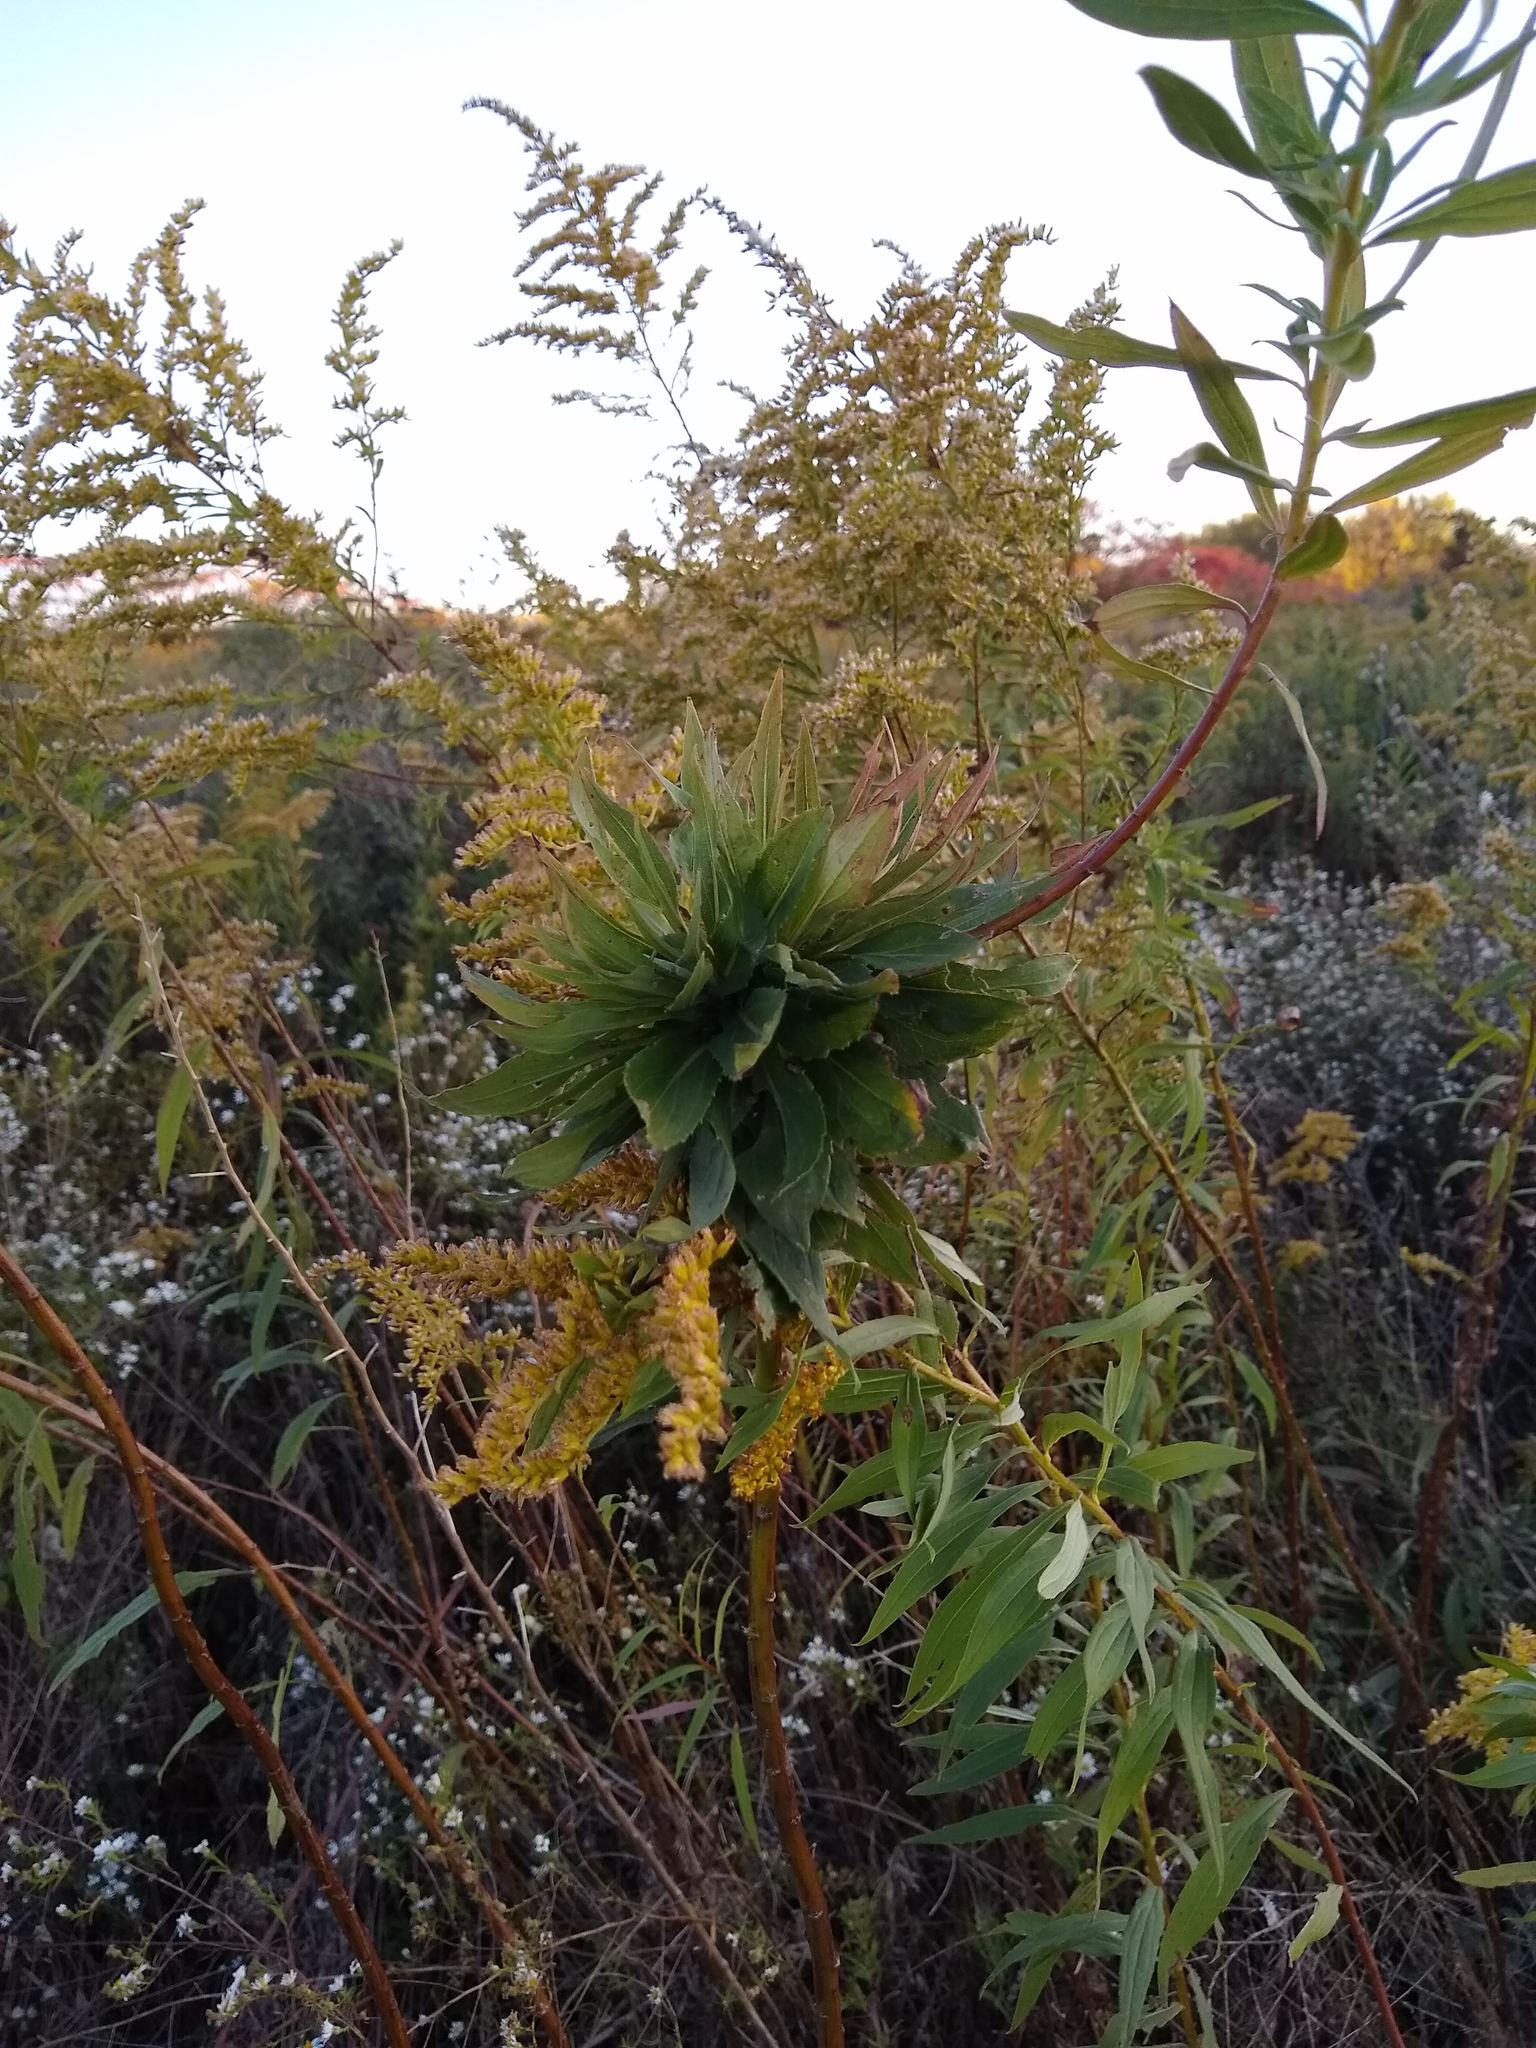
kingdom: Animalia
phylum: Arthropoda
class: Insecta
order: Diptera
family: Cecidomyiidae
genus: Rhopalomyia
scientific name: Rhopalomyia solidaginis
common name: Goldenrod bunch gall midge
